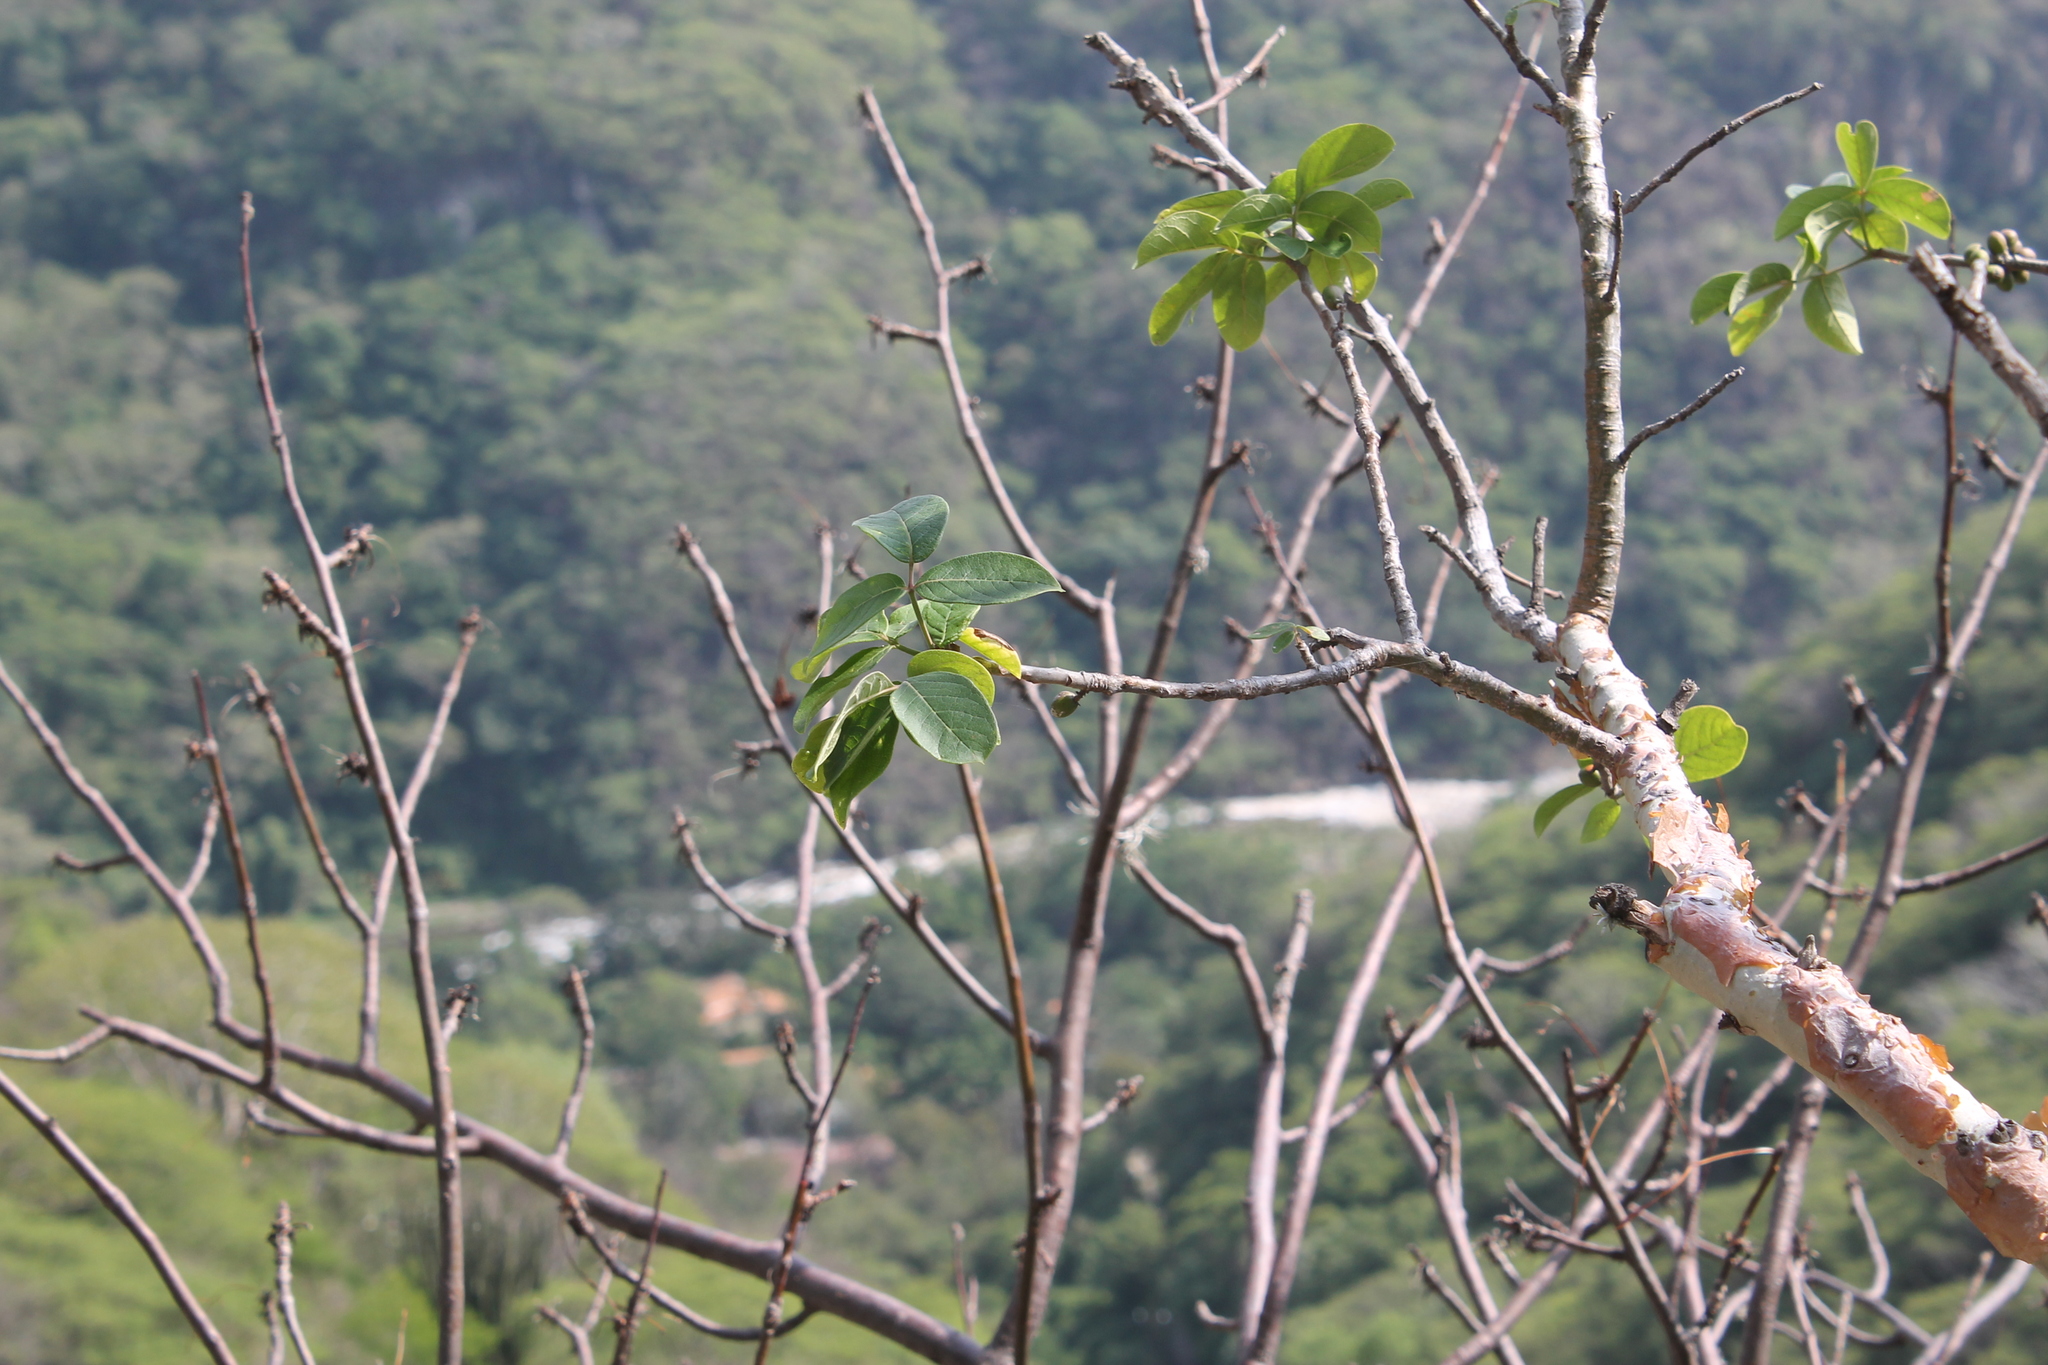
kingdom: Plantae
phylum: Tracheophyta
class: Magnoliopsida
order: Sapindales
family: Burseraceae
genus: Bursera
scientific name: Bursera grandifolia
